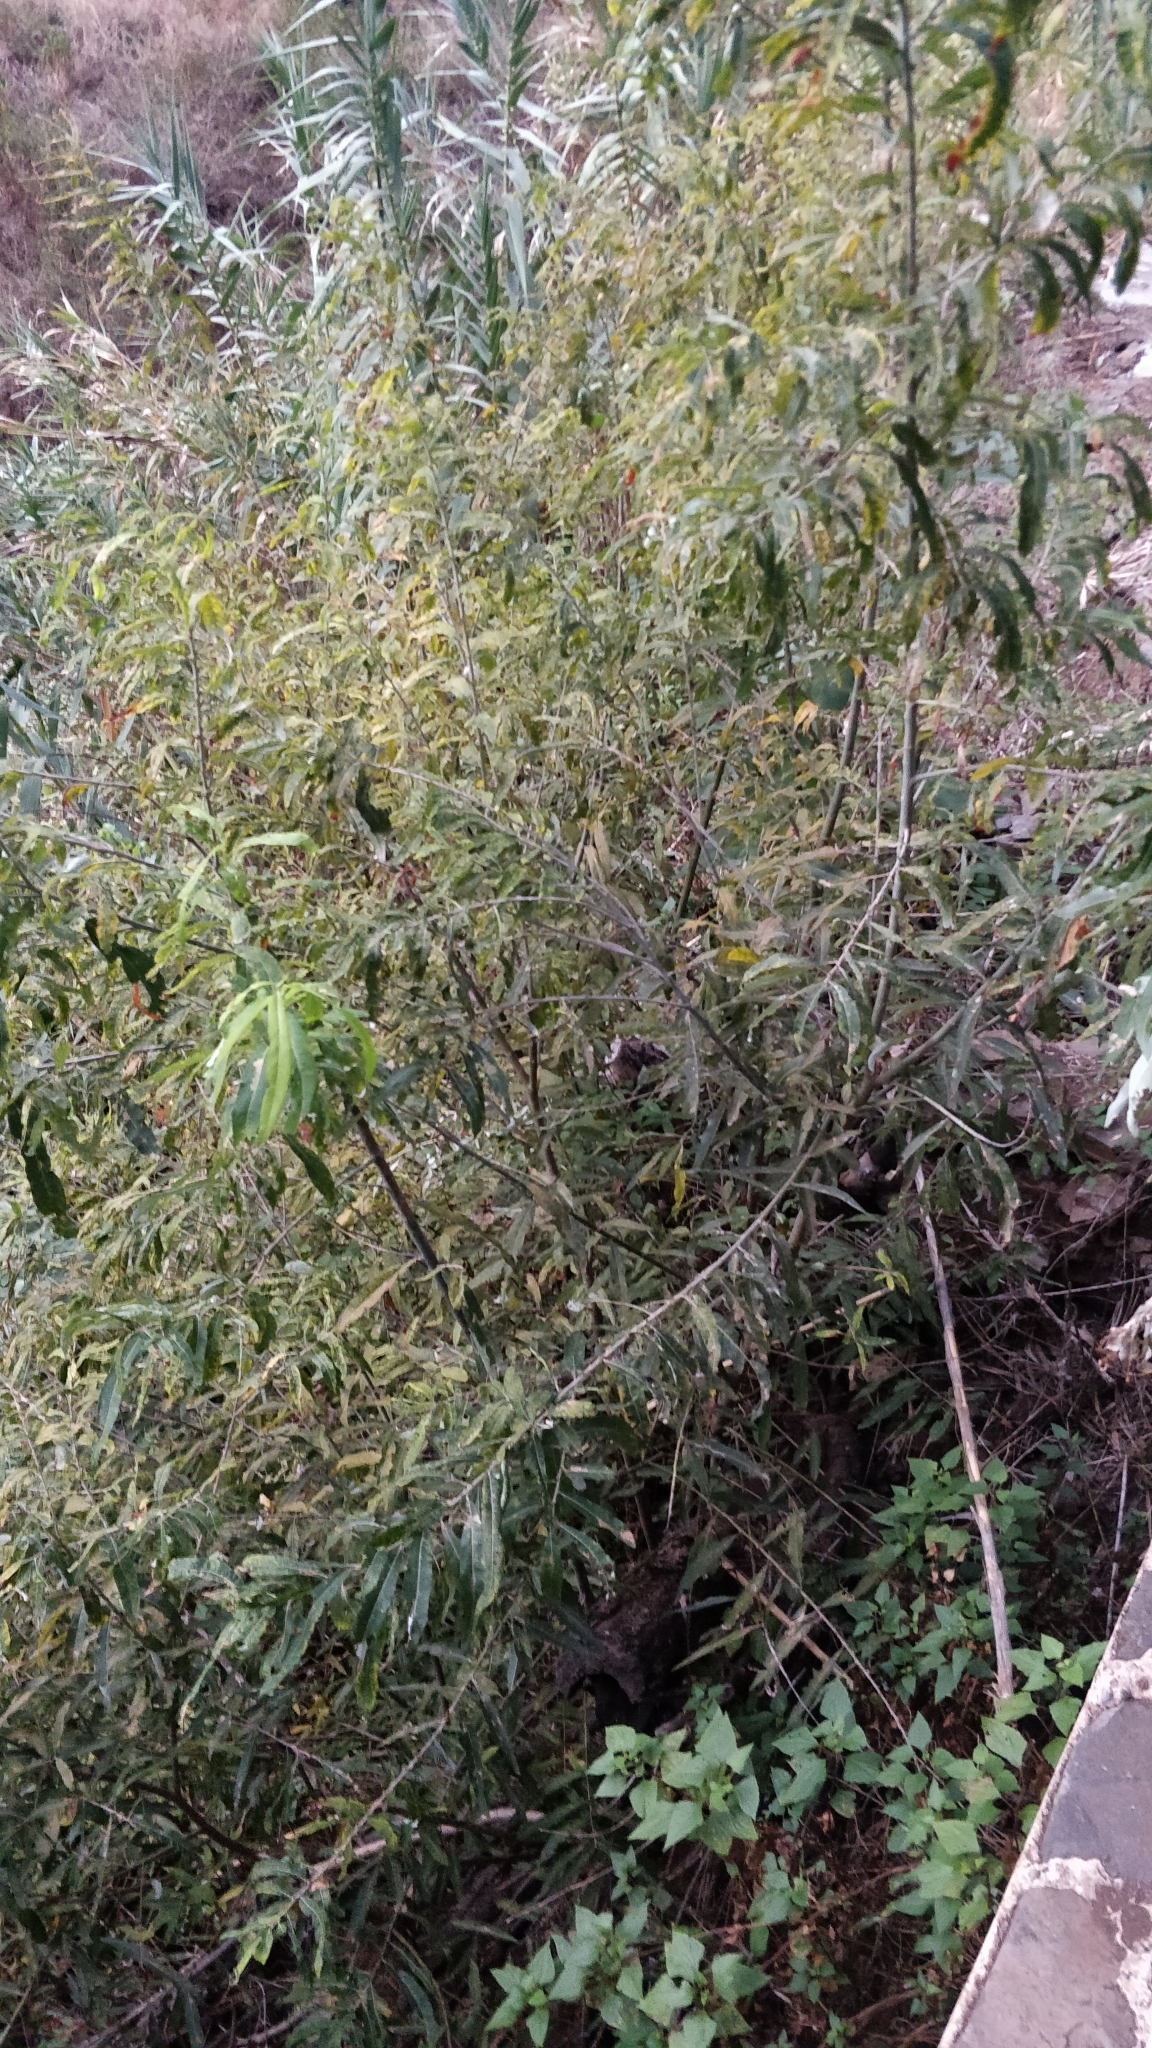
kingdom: Plantae
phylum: Tracheophyta
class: Magnoliopsida
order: Malpighiales
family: Salicaceae
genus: Salix
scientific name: Salix canariensis
